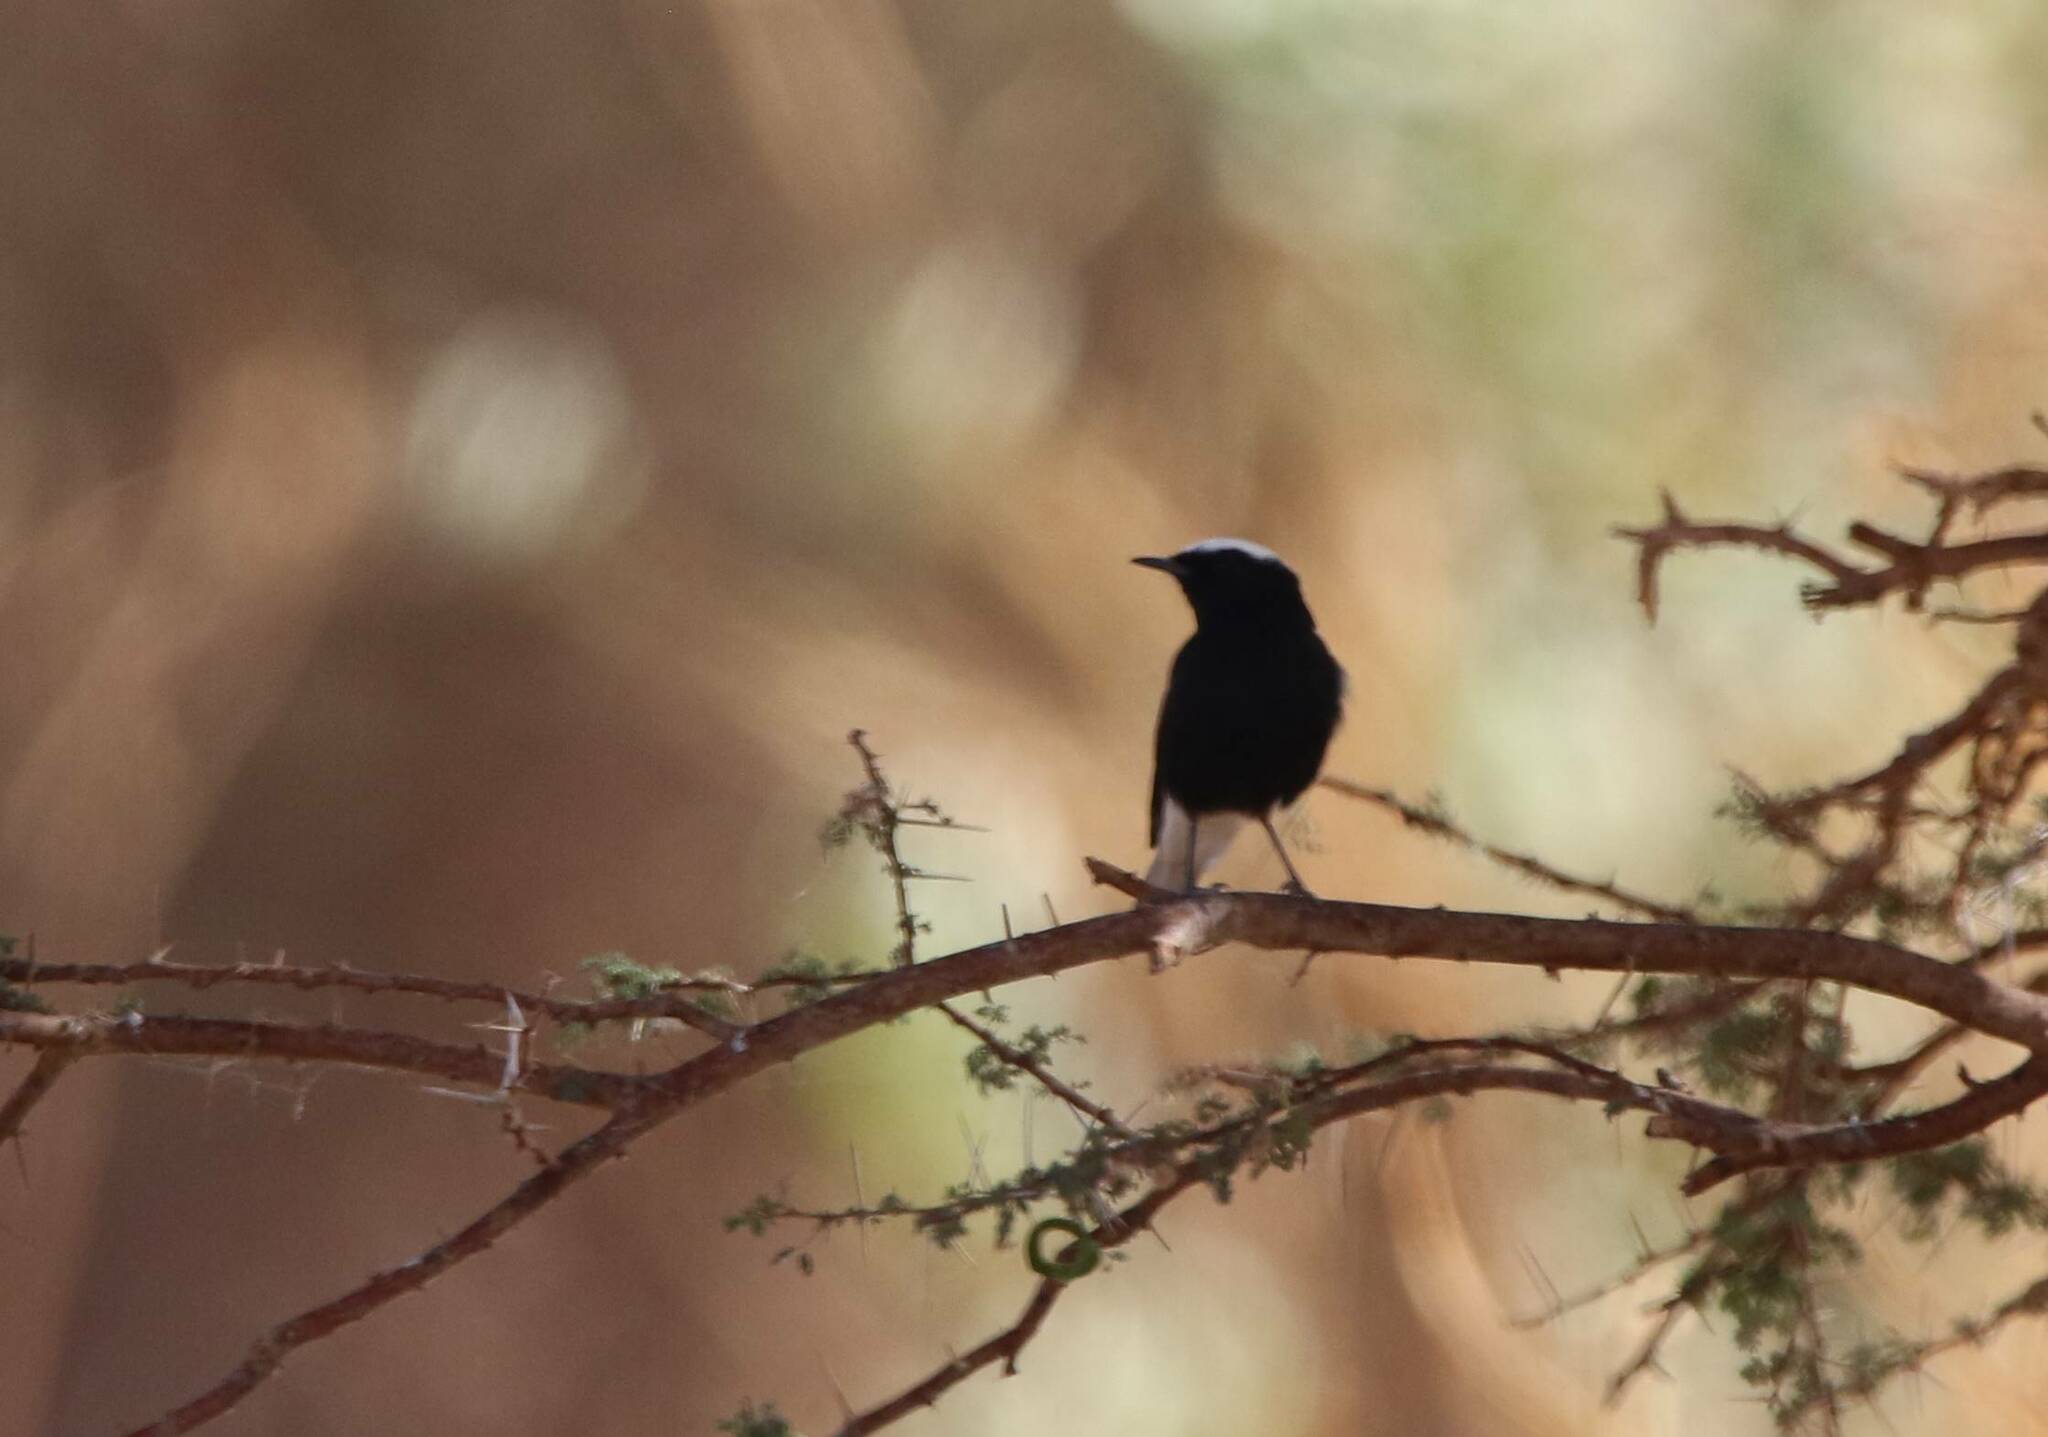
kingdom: Animalia
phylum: Chordata
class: Aves
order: Passeriformes
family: Muscicapidae
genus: Oenanthe
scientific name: Oenanthe leucopyga
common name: White-crowned wheatear
